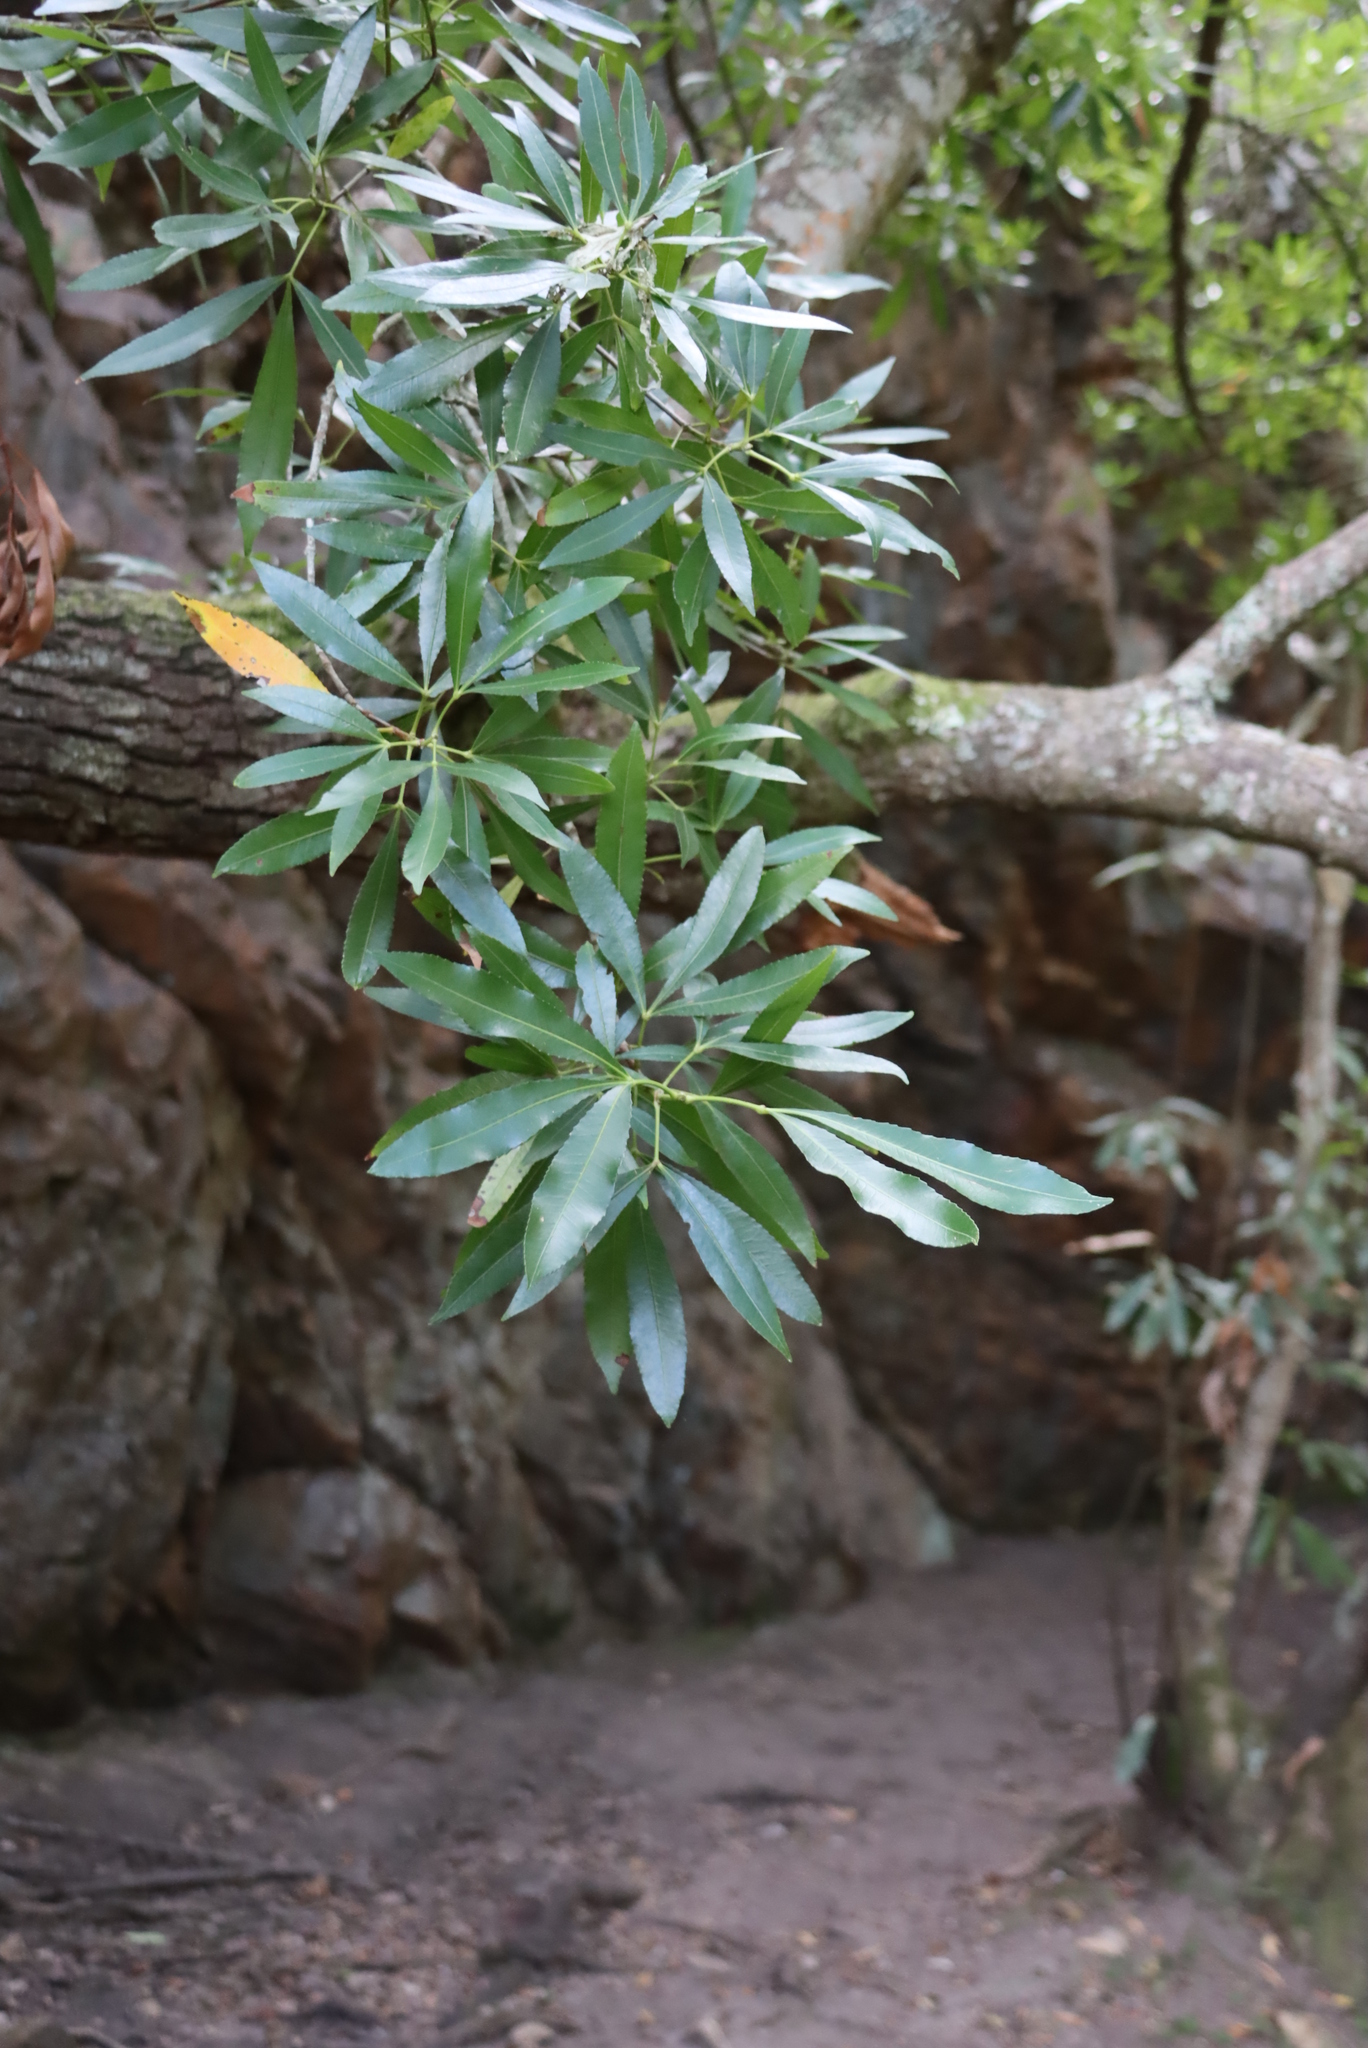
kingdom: Plantae
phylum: Tracheophyta
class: Magnoliopsida
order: Oxalidales
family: Cunoniaceae
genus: Platylophus
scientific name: Platylophus trifoliatus
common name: White alder
